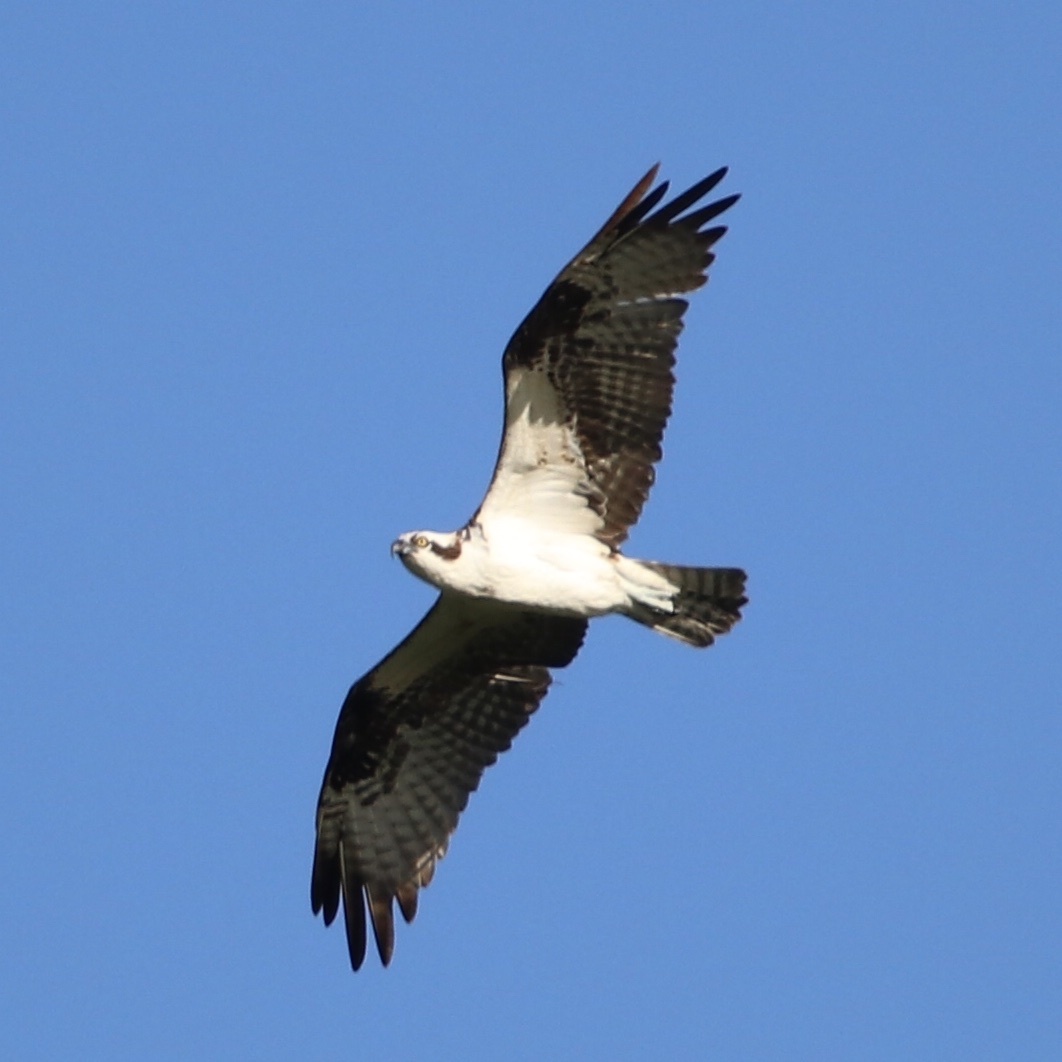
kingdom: Animalia
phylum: Chordata
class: Aves
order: Accipitriformes
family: Pandionidae
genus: Pandion
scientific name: Pandion haliaetus
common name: Osprey
